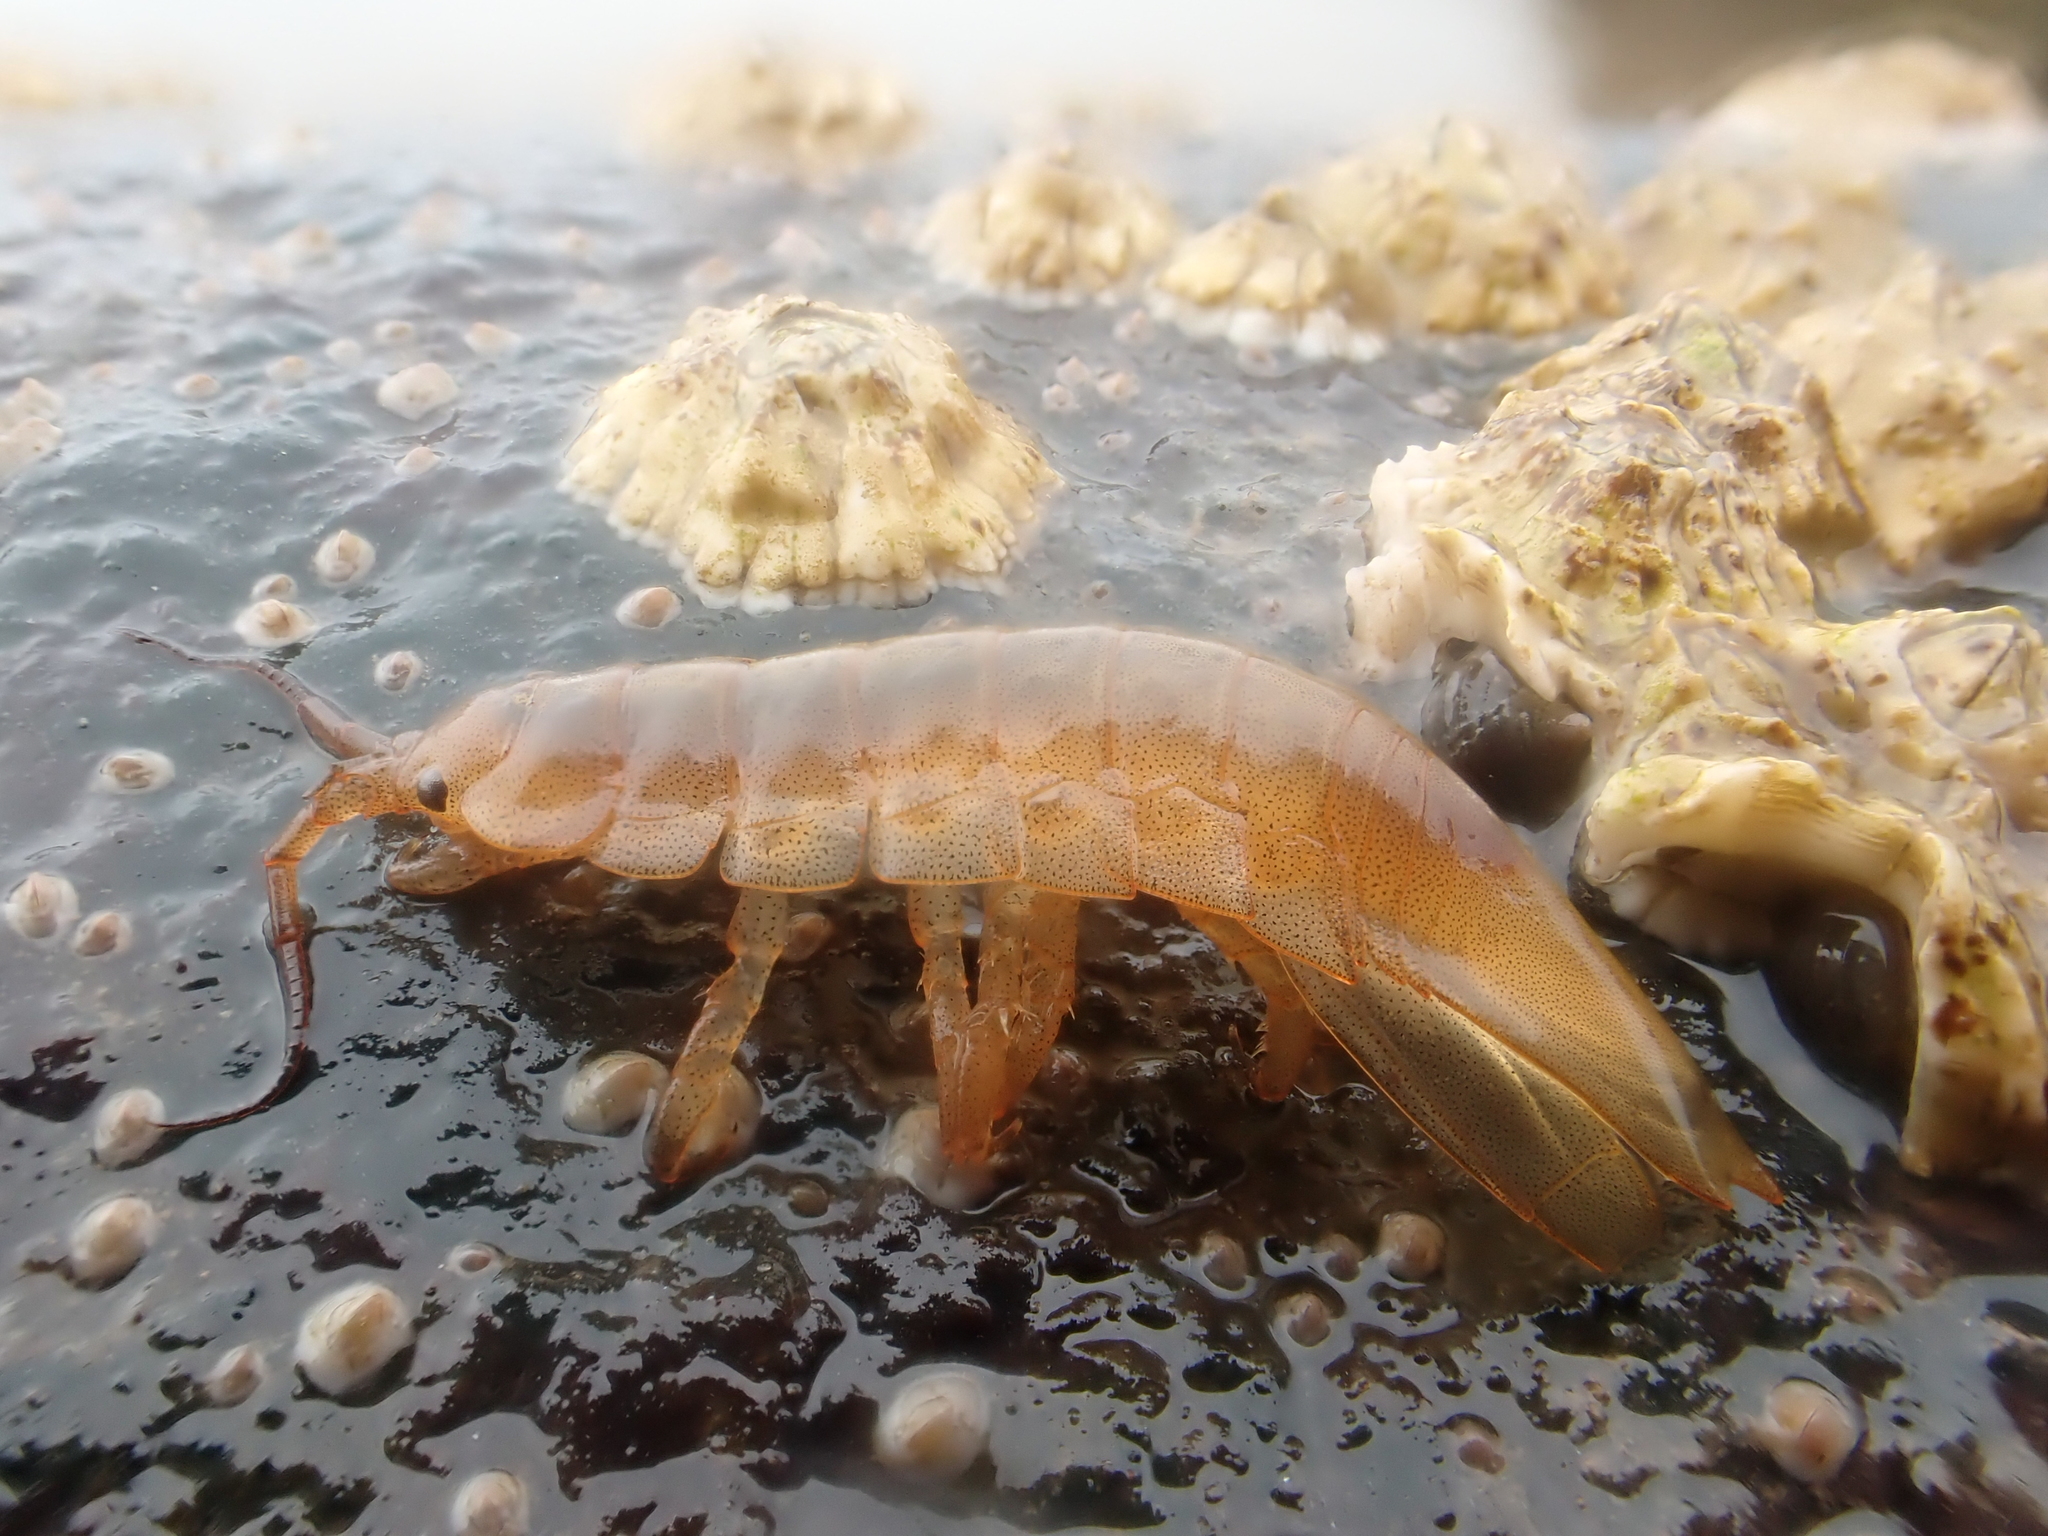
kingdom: Animalia
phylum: Arthropoda
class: Malacostraca
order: Isopoda
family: Idoteidae
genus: Idotea
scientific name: Idotea balthica
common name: Baltic isopod
